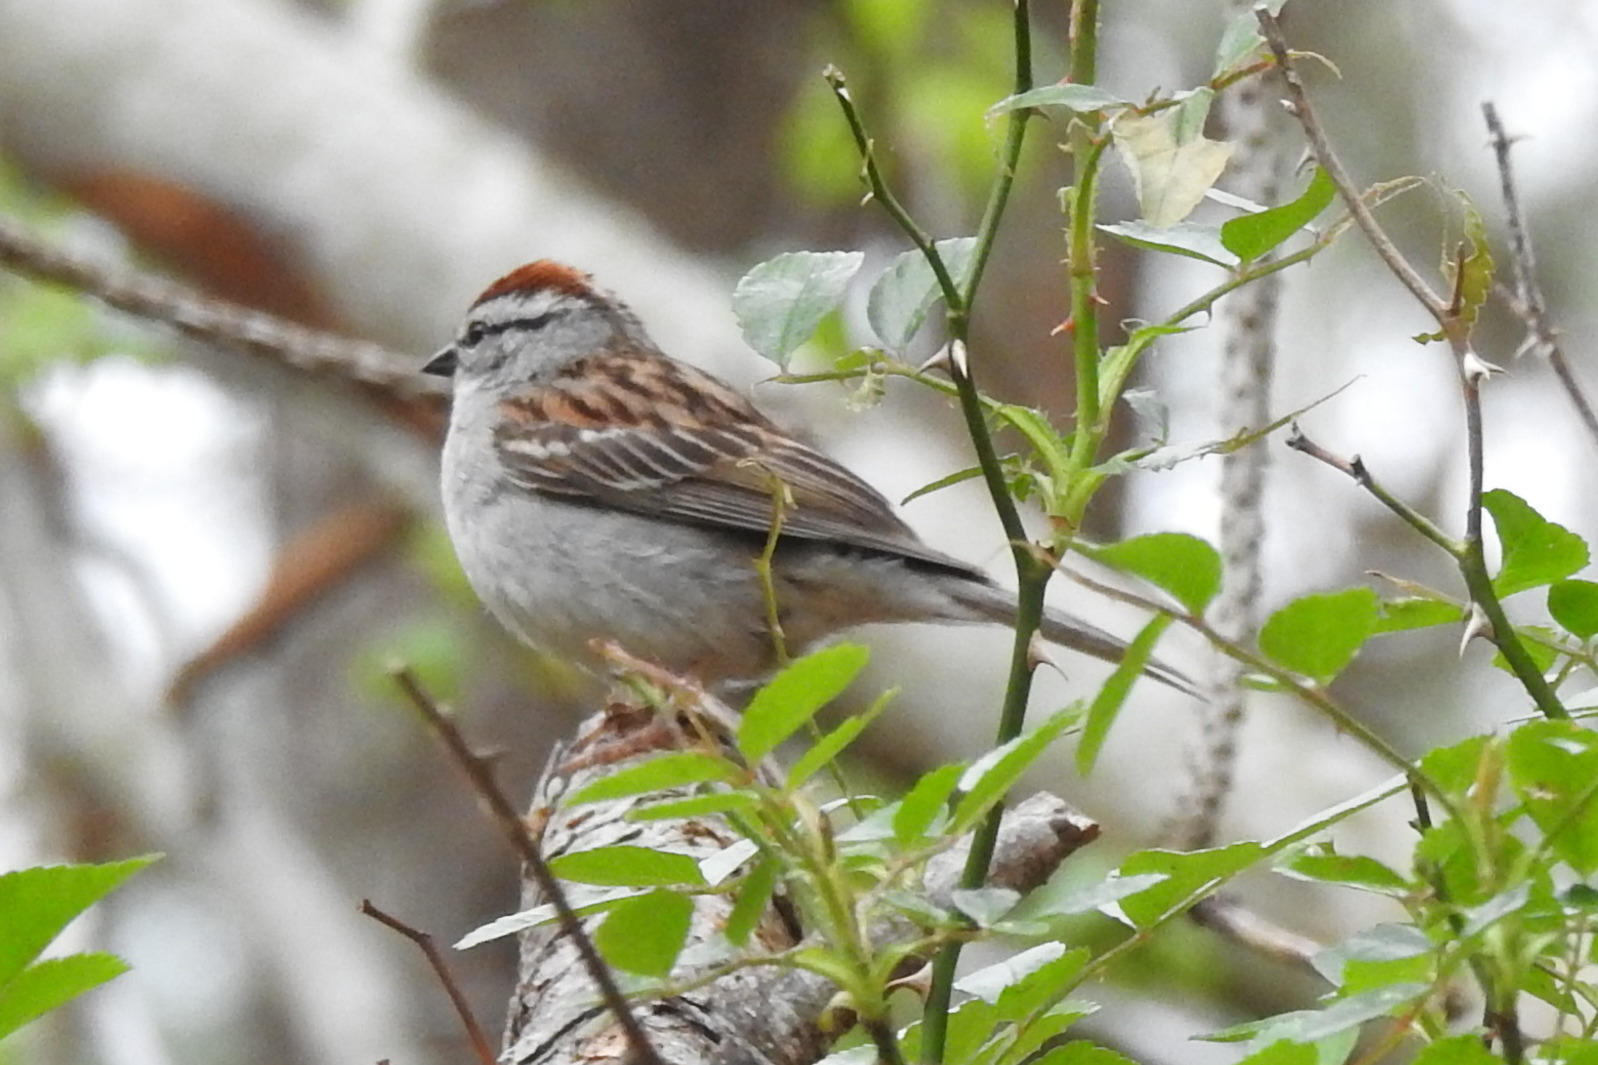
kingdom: Animalia
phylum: Chordata
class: Aves
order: Passeriformes
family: Passerellidae
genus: Spizella
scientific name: Spizella passerina
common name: Chipping sparrow
